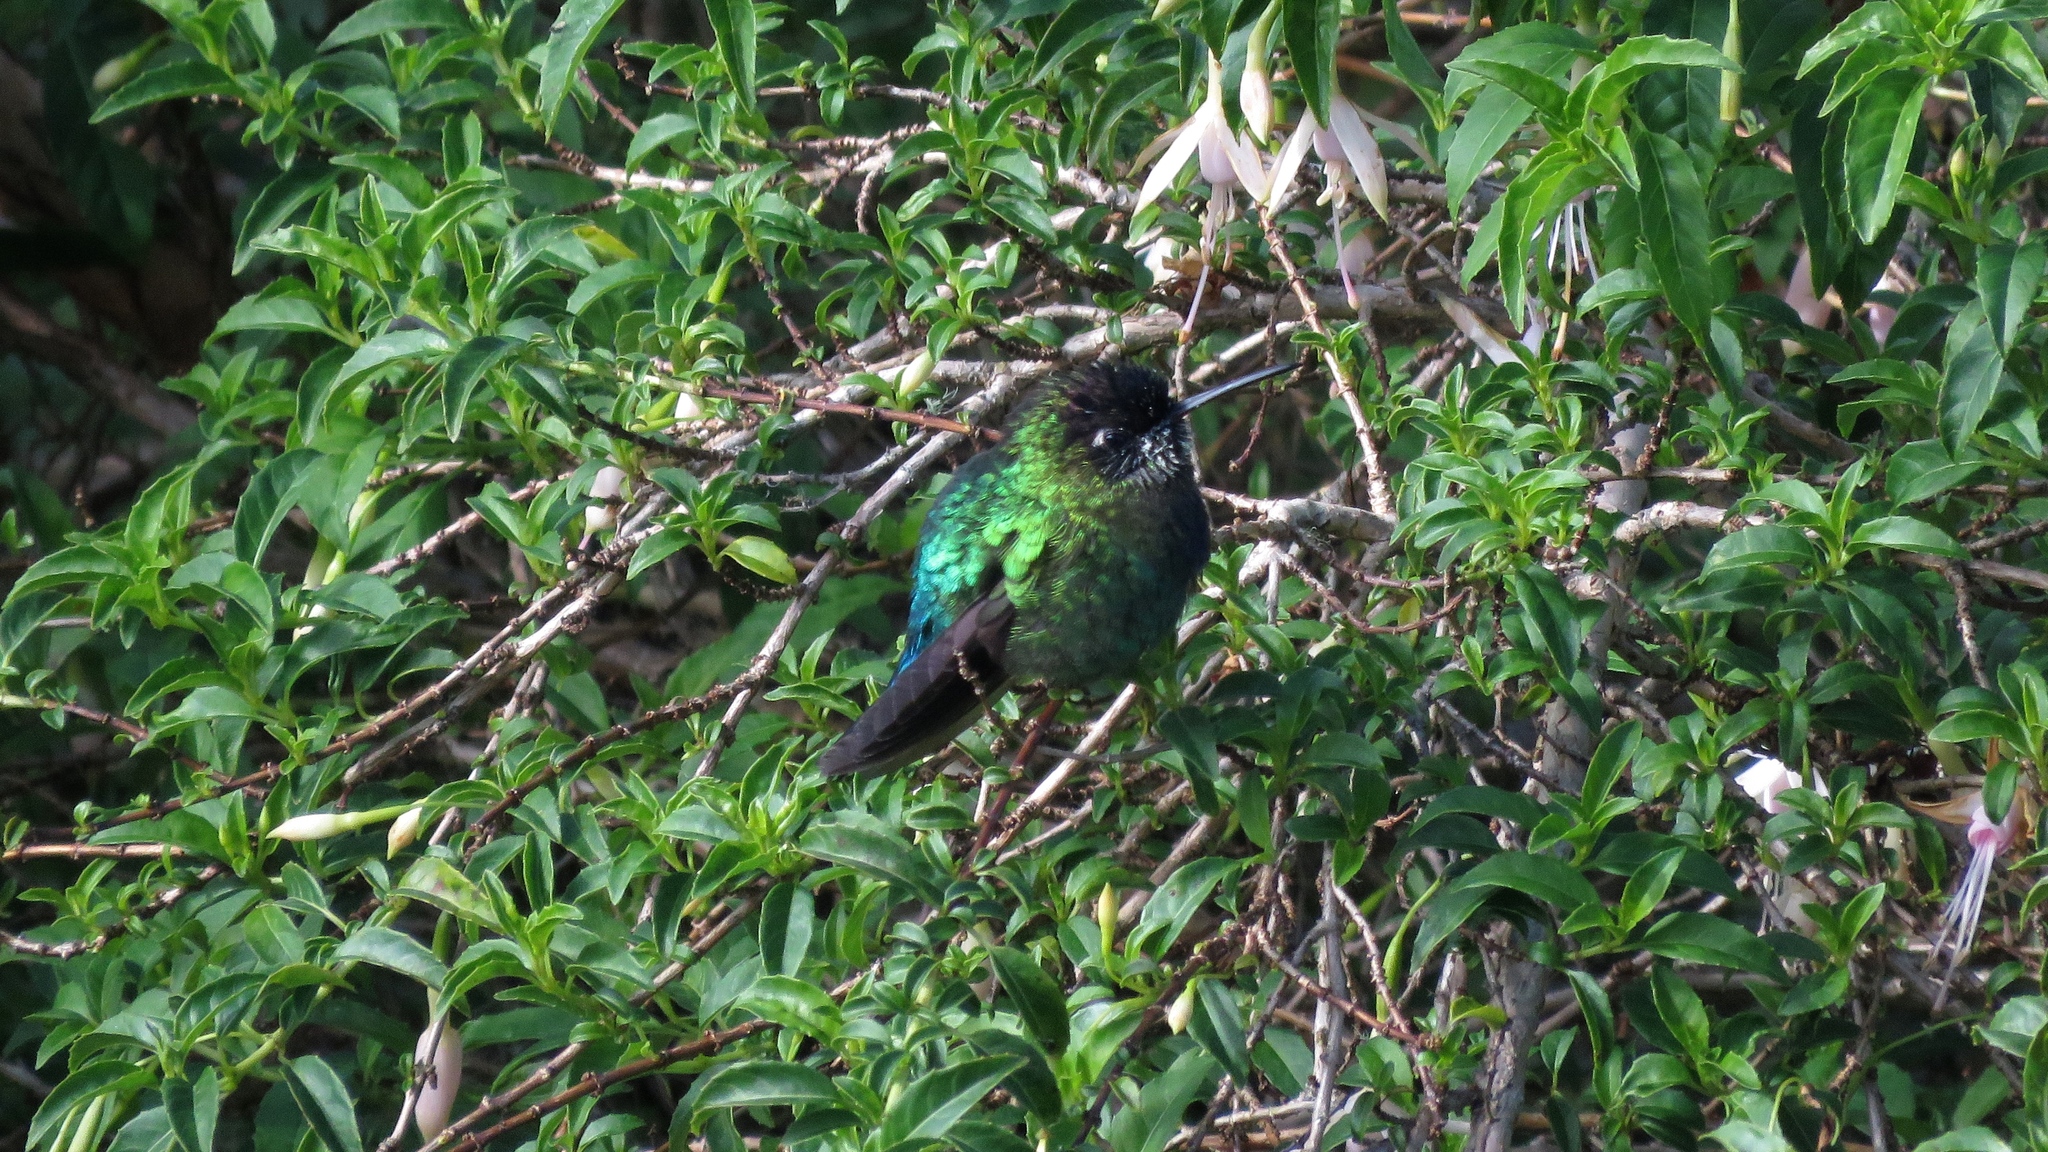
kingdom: Animalia
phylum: Chordata
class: Aves
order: Apodiformes
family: Trochilidae
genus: Panterpe
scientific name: Panterpe insignis
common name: Fiery-throated hummingbird
